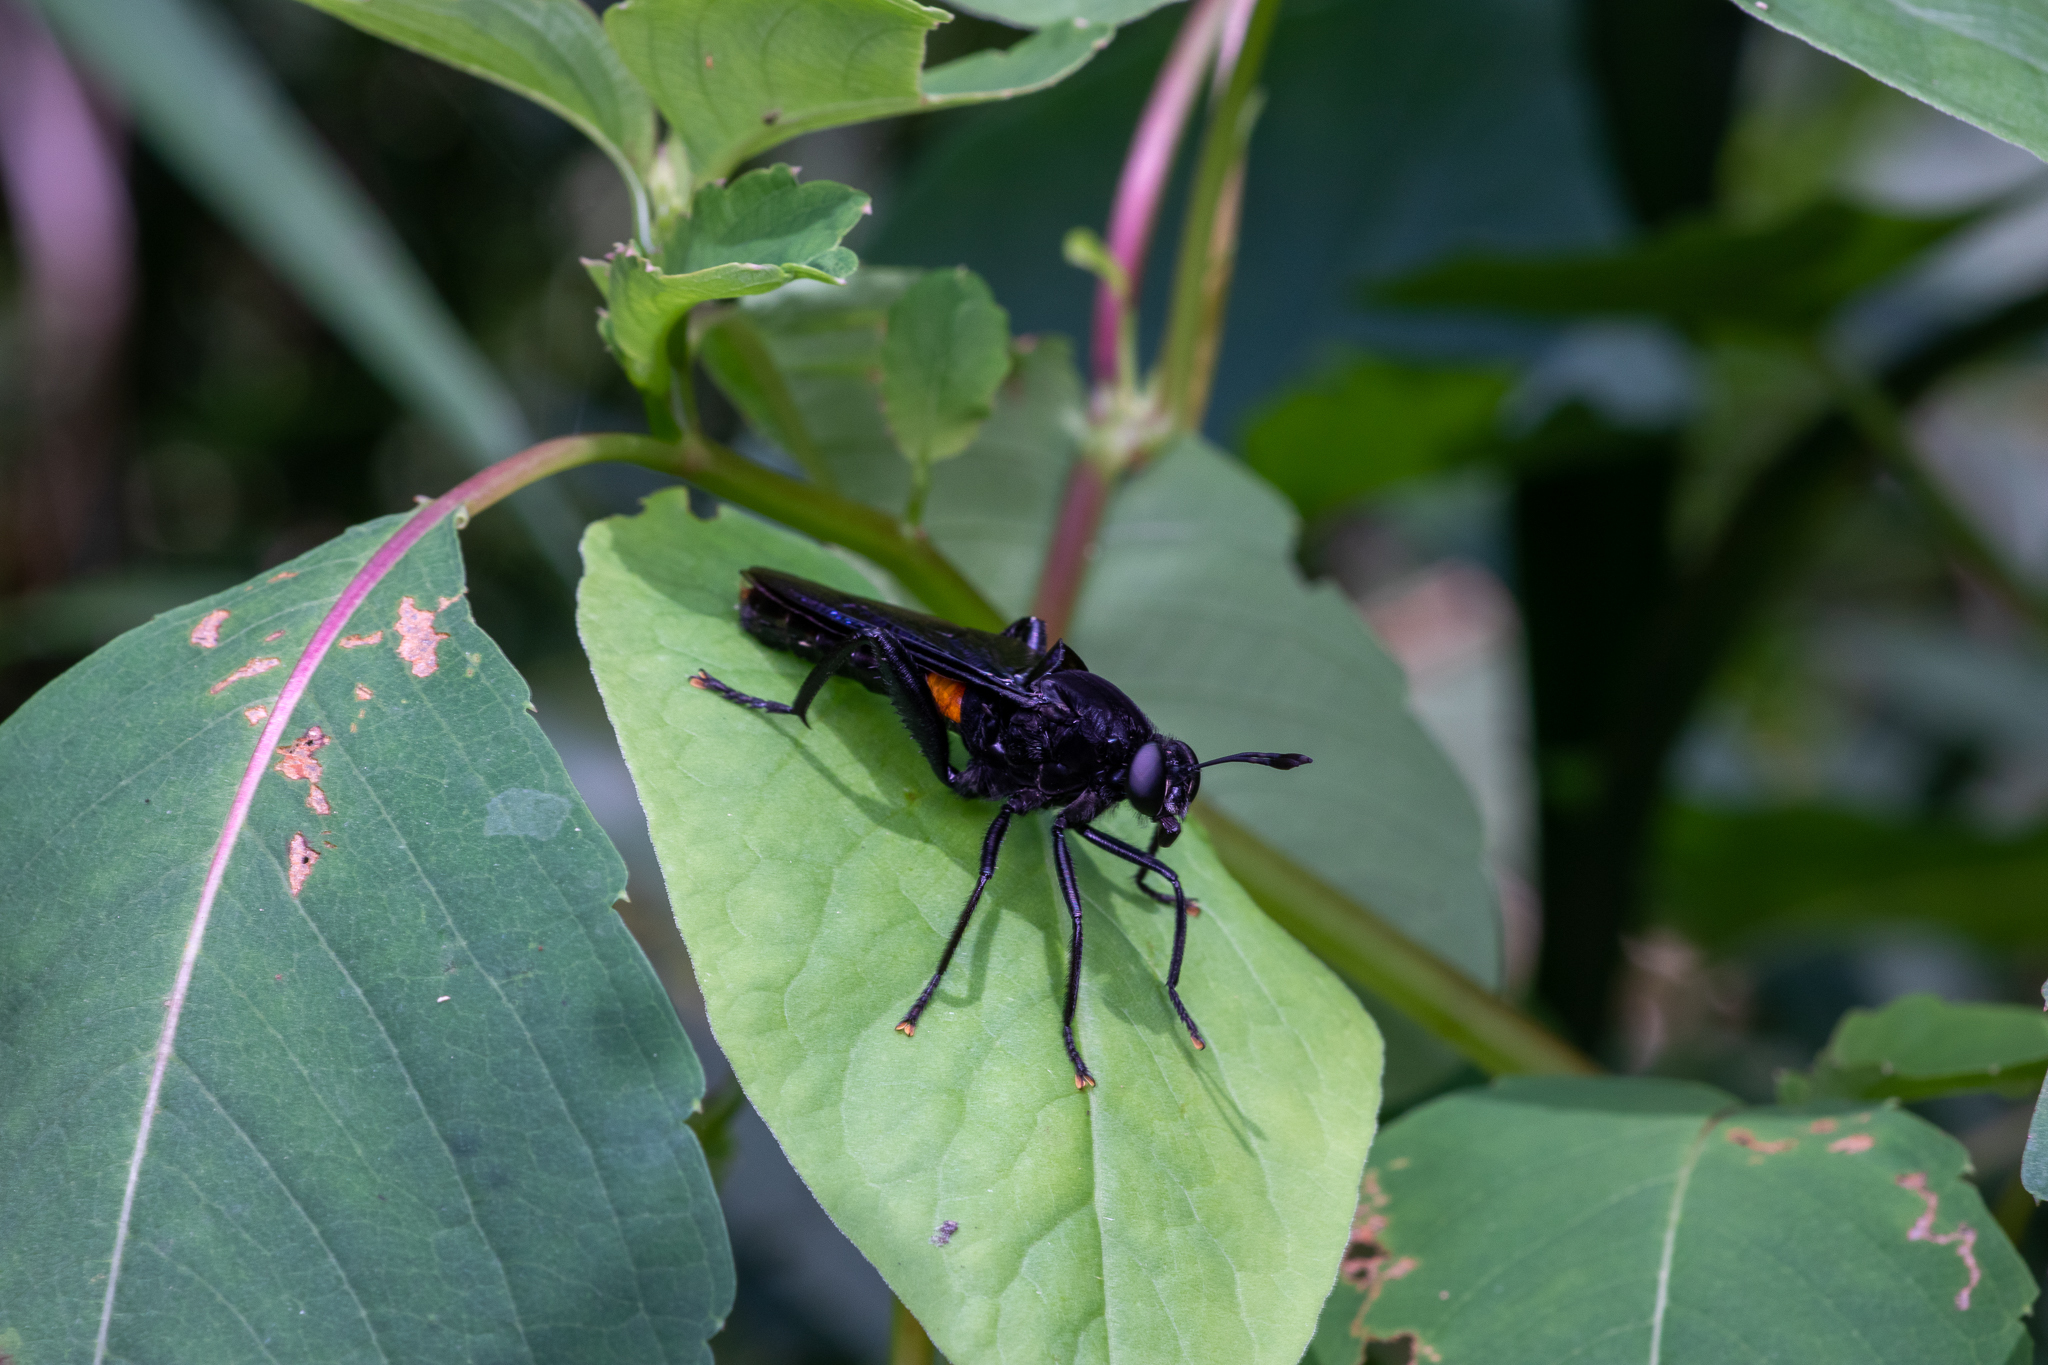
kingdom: Animalia
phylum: Arthropoda
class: Insecta
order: Diptera
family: Mydidae
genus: Mydas
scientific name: Mydas clavatus
